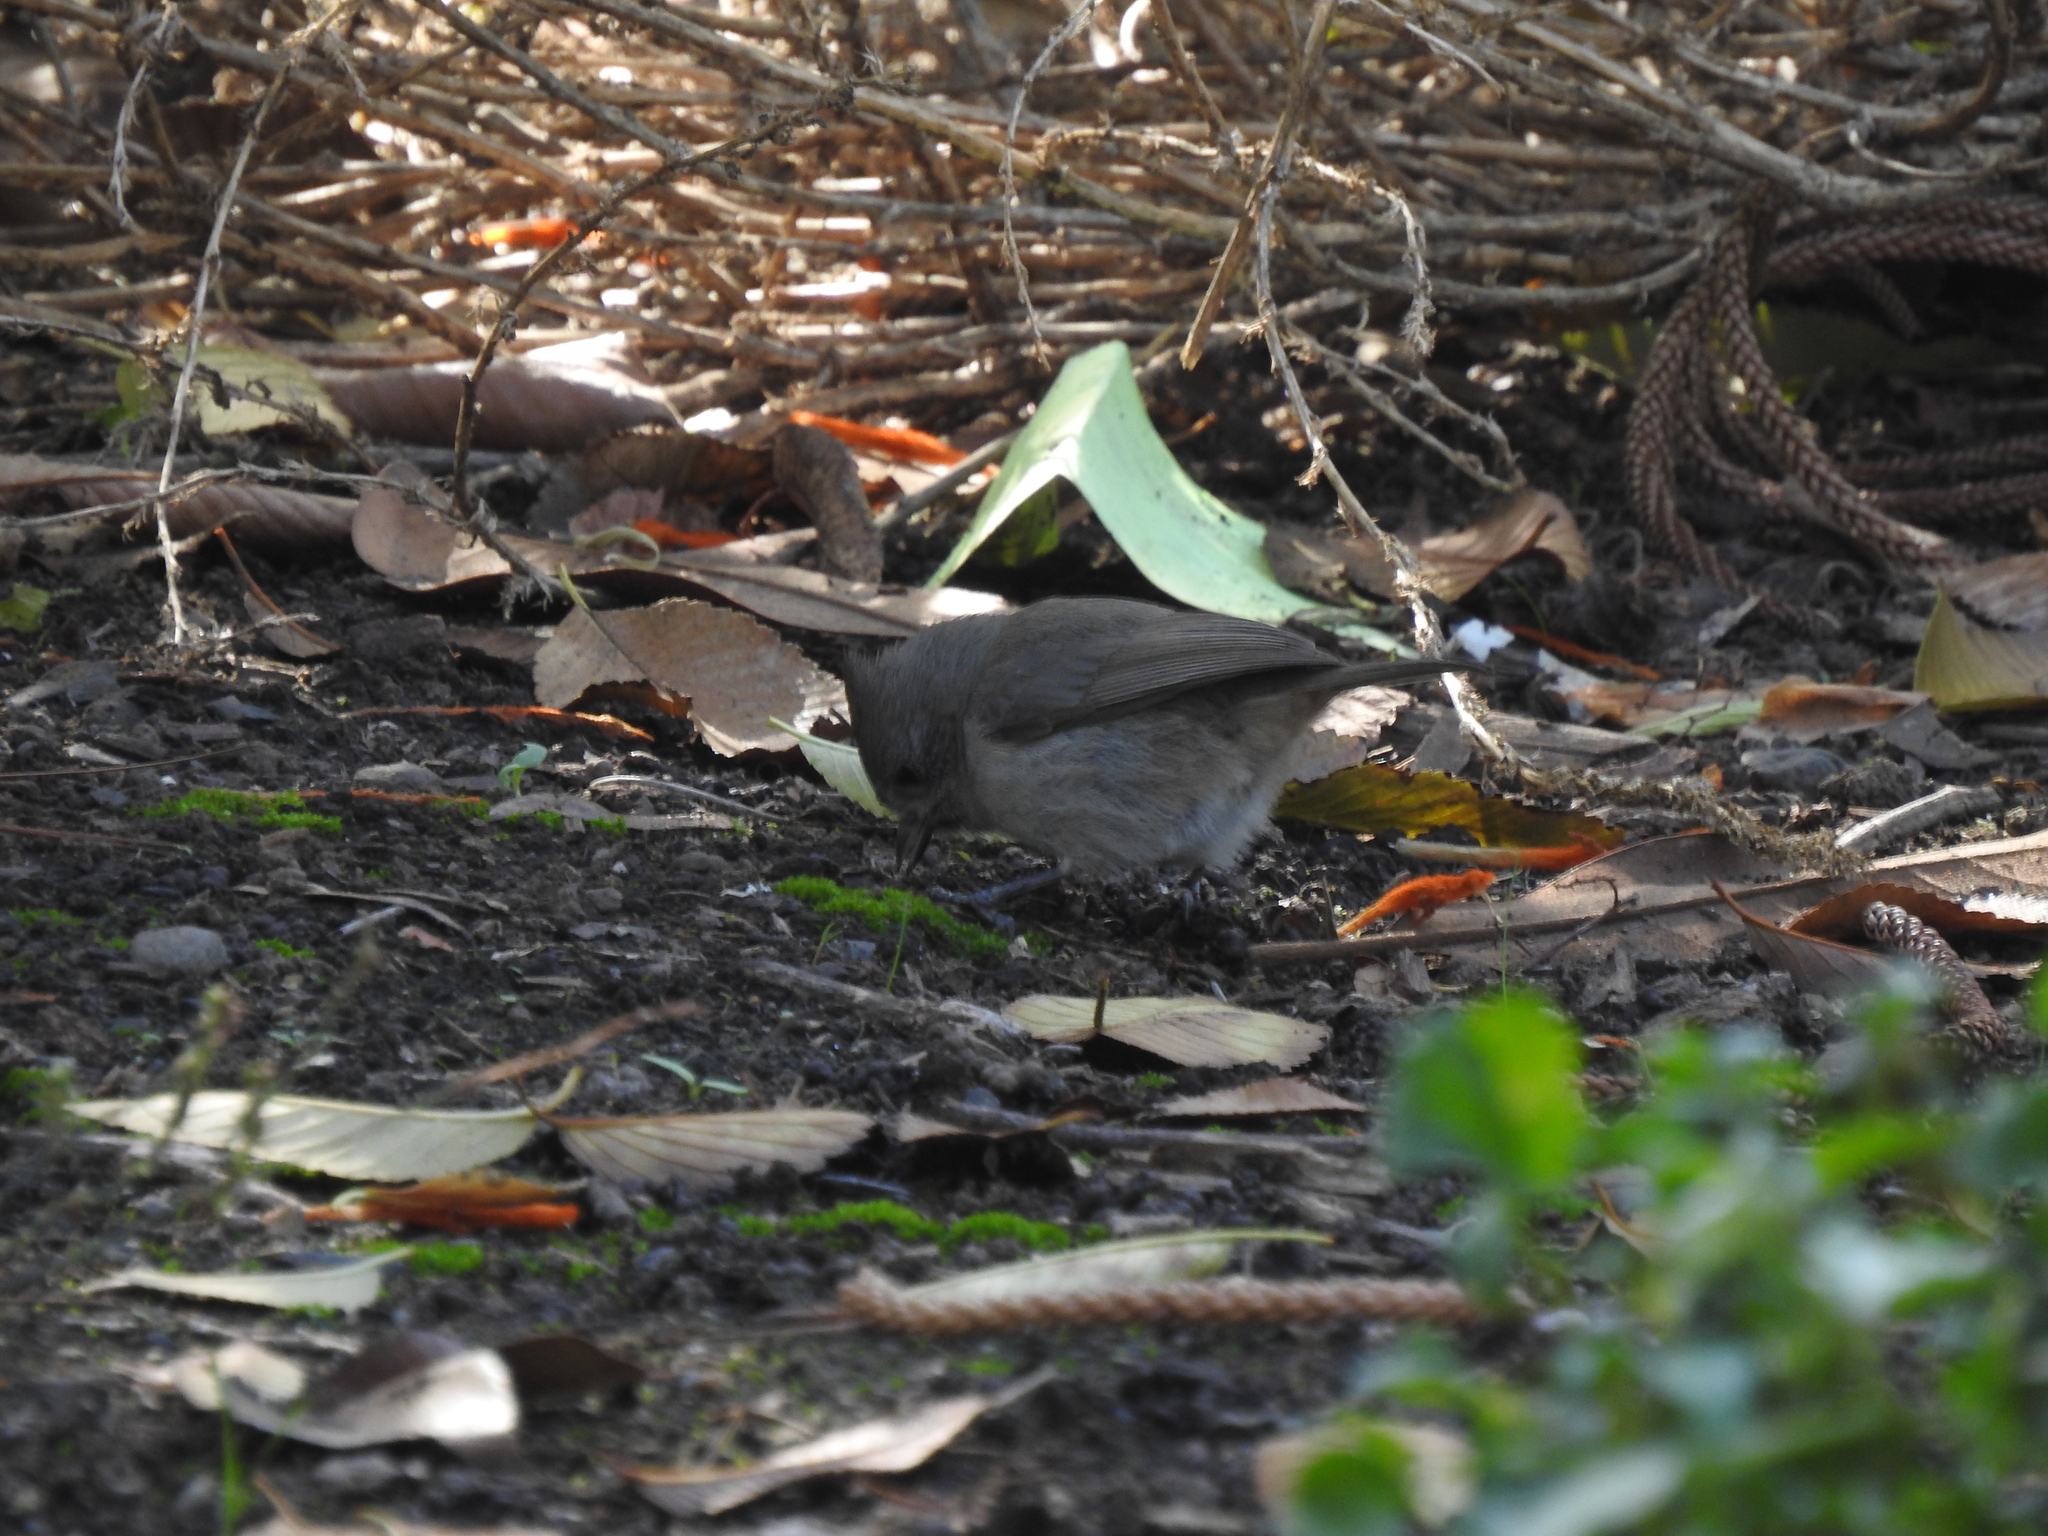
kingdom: Animalia
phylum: Chordata
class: Aves
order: Passeriformes
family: Paridae
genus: Baeolophus
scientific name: Baeolophus inornatus
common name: Oak titmouse
